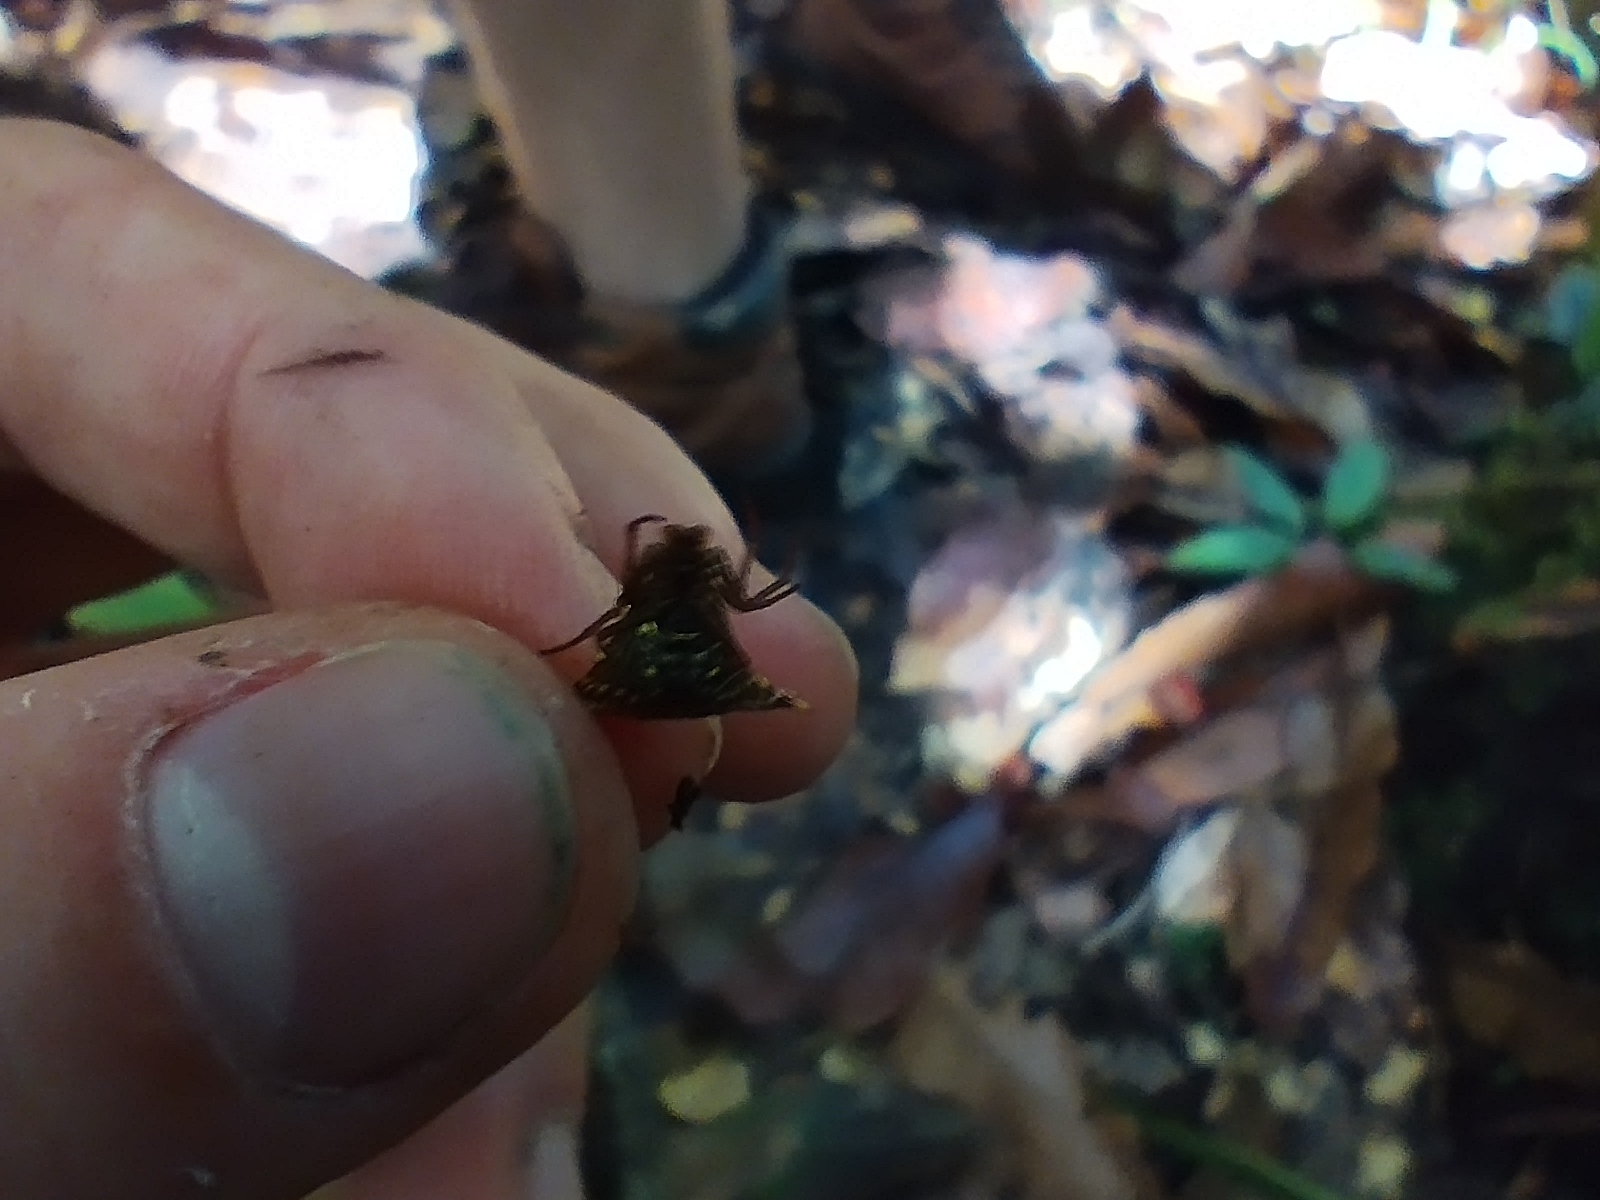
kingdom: Animalia
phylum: Arthropoda
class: Arachnida
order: Araneae
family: Araneidae
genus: Micrathena
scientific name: Micrathena lucasi
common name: Orb weavers
